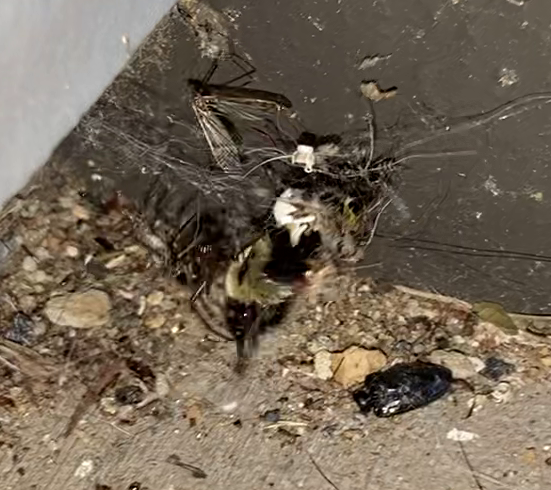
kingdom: Animalia
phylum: Arthropoda
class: Insecta
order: Hymenoptera
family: Apidae
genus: Bombus
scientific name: Bombus impatiens
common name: Common eastern bumble bee
